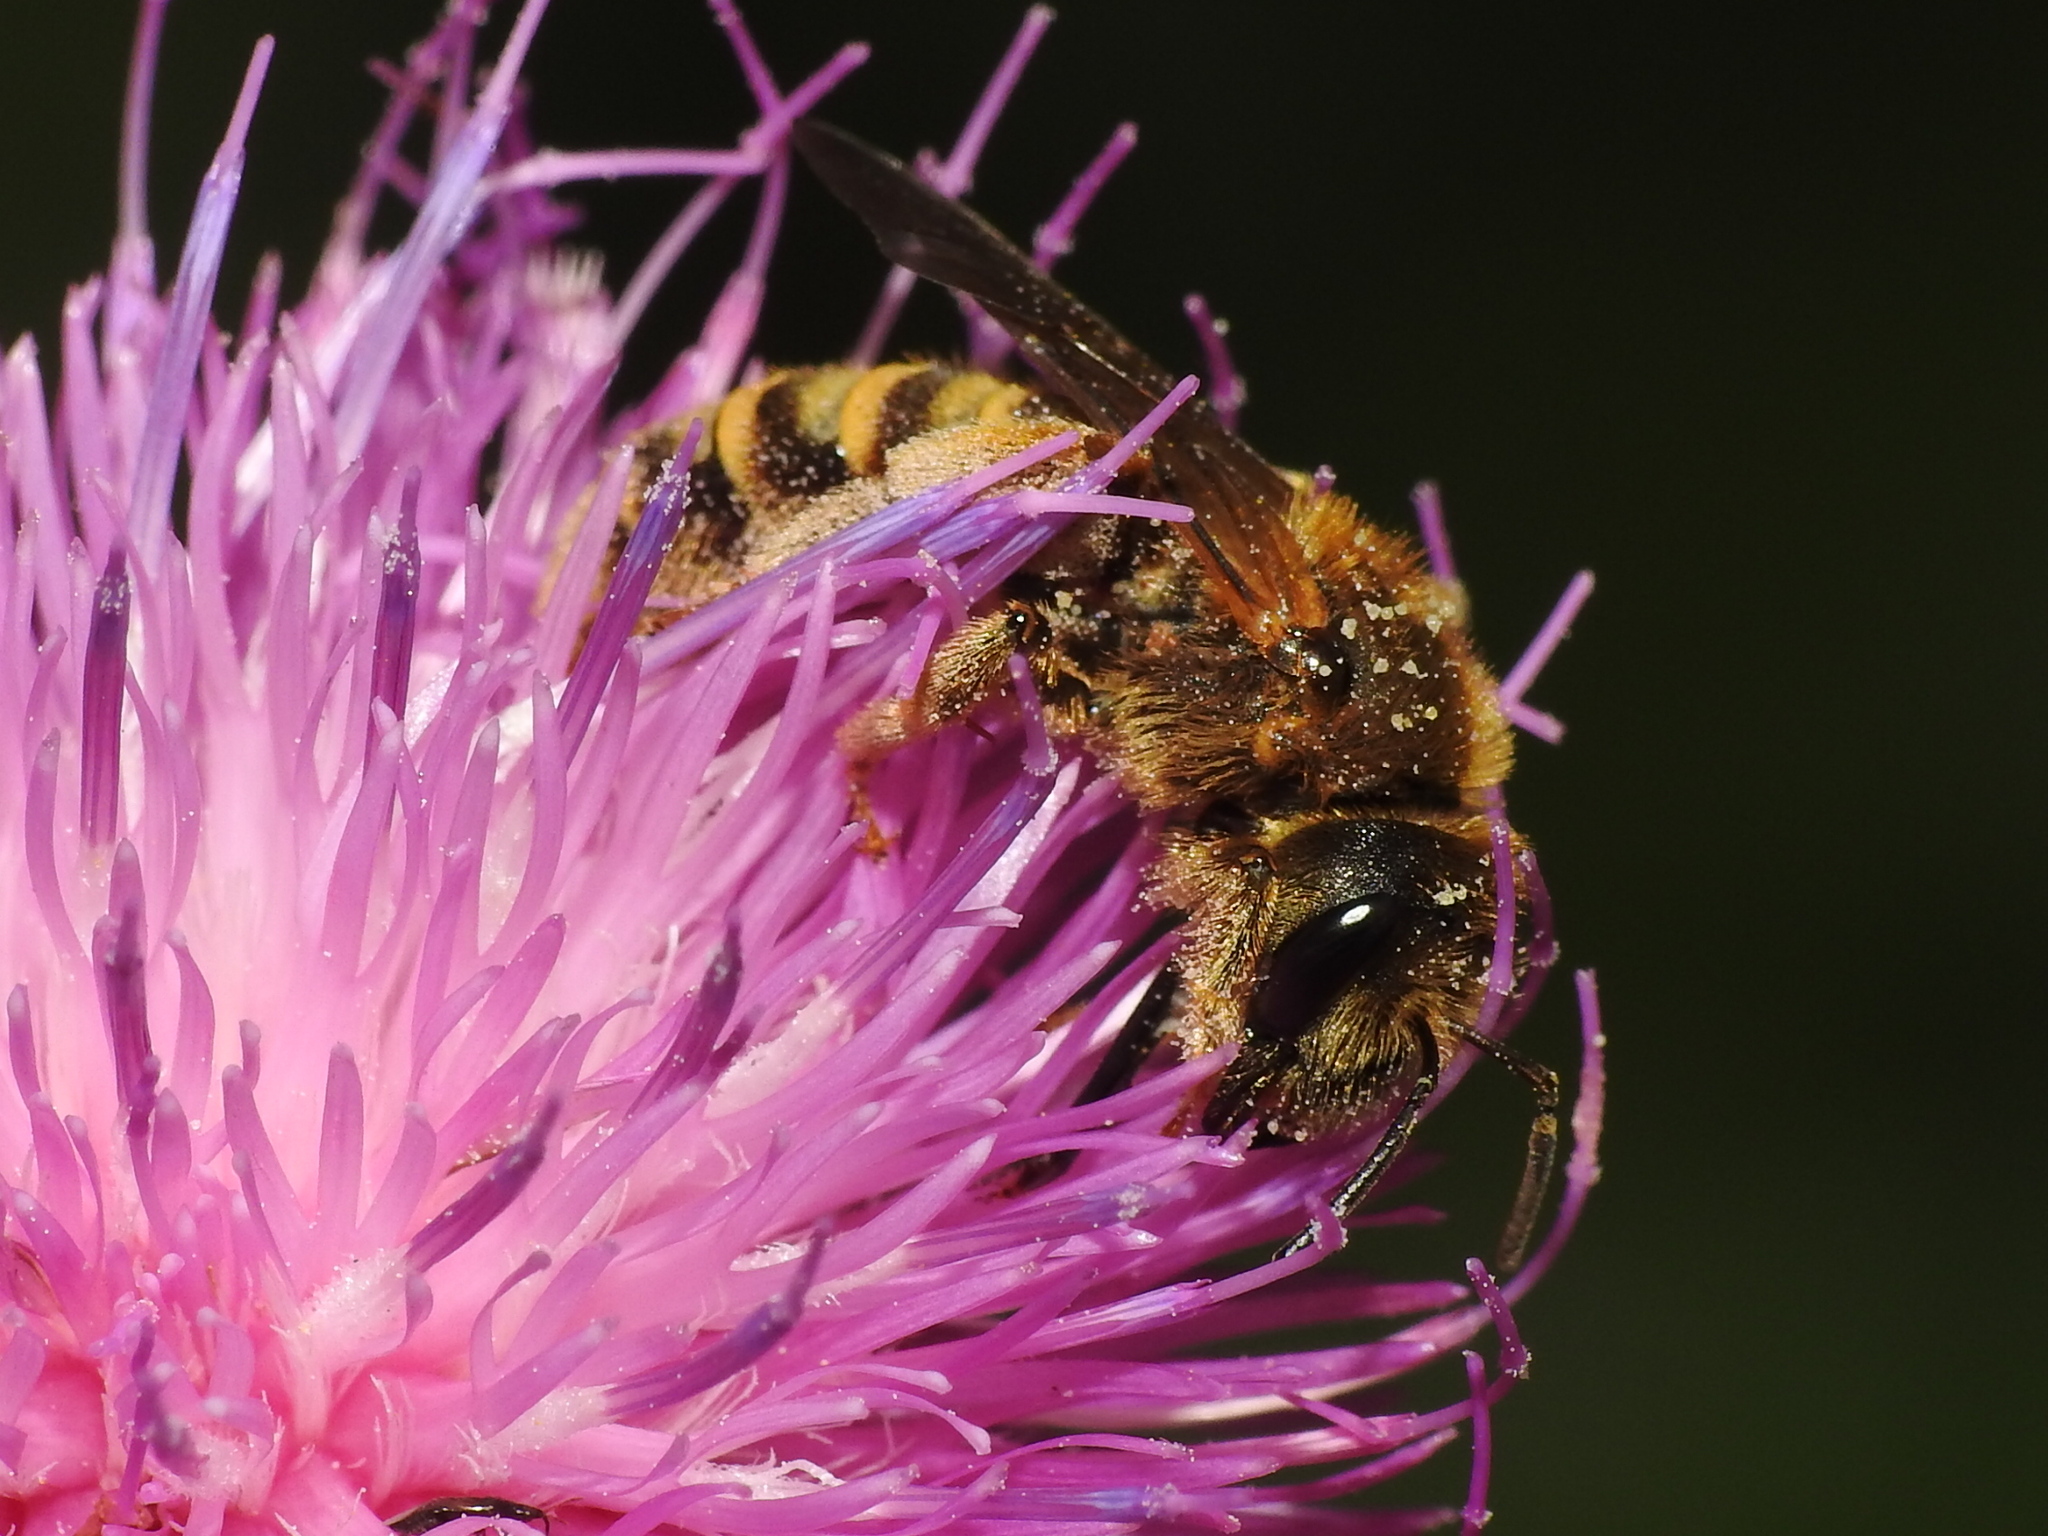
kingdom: Animalia
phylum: Arthropoda
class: Insecta
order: Hymenoptera
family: Halictidae
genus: Halictus
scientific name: Halictus scabiosae
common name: Great banded furrow bee
